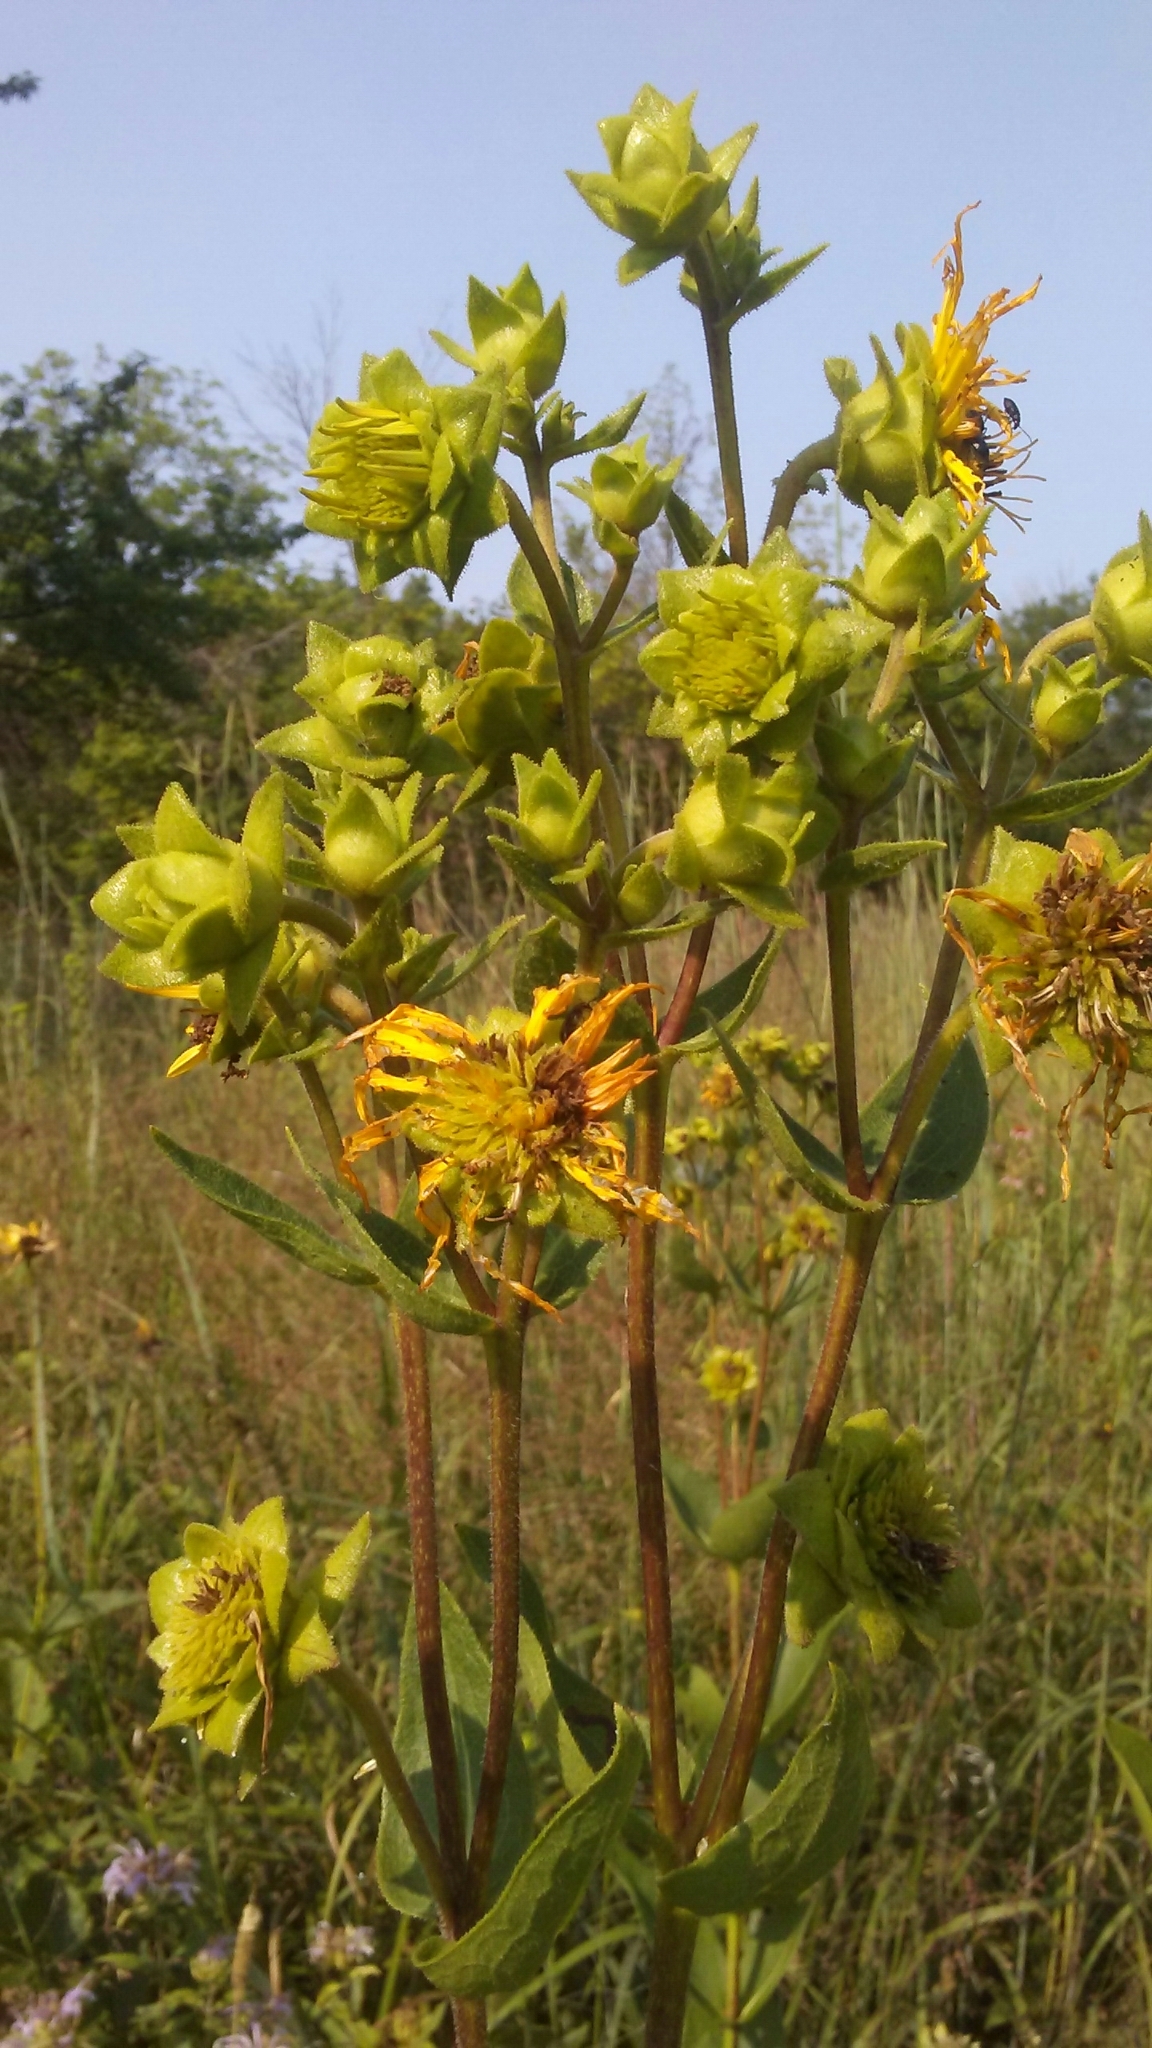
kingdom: Plantae
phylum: Tracheophyta
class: Magnoliopsida
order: Asterales
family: Asteraceae
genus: Silphium
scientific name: Silphium integrifolium
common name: Whole-leaf rosinweed
